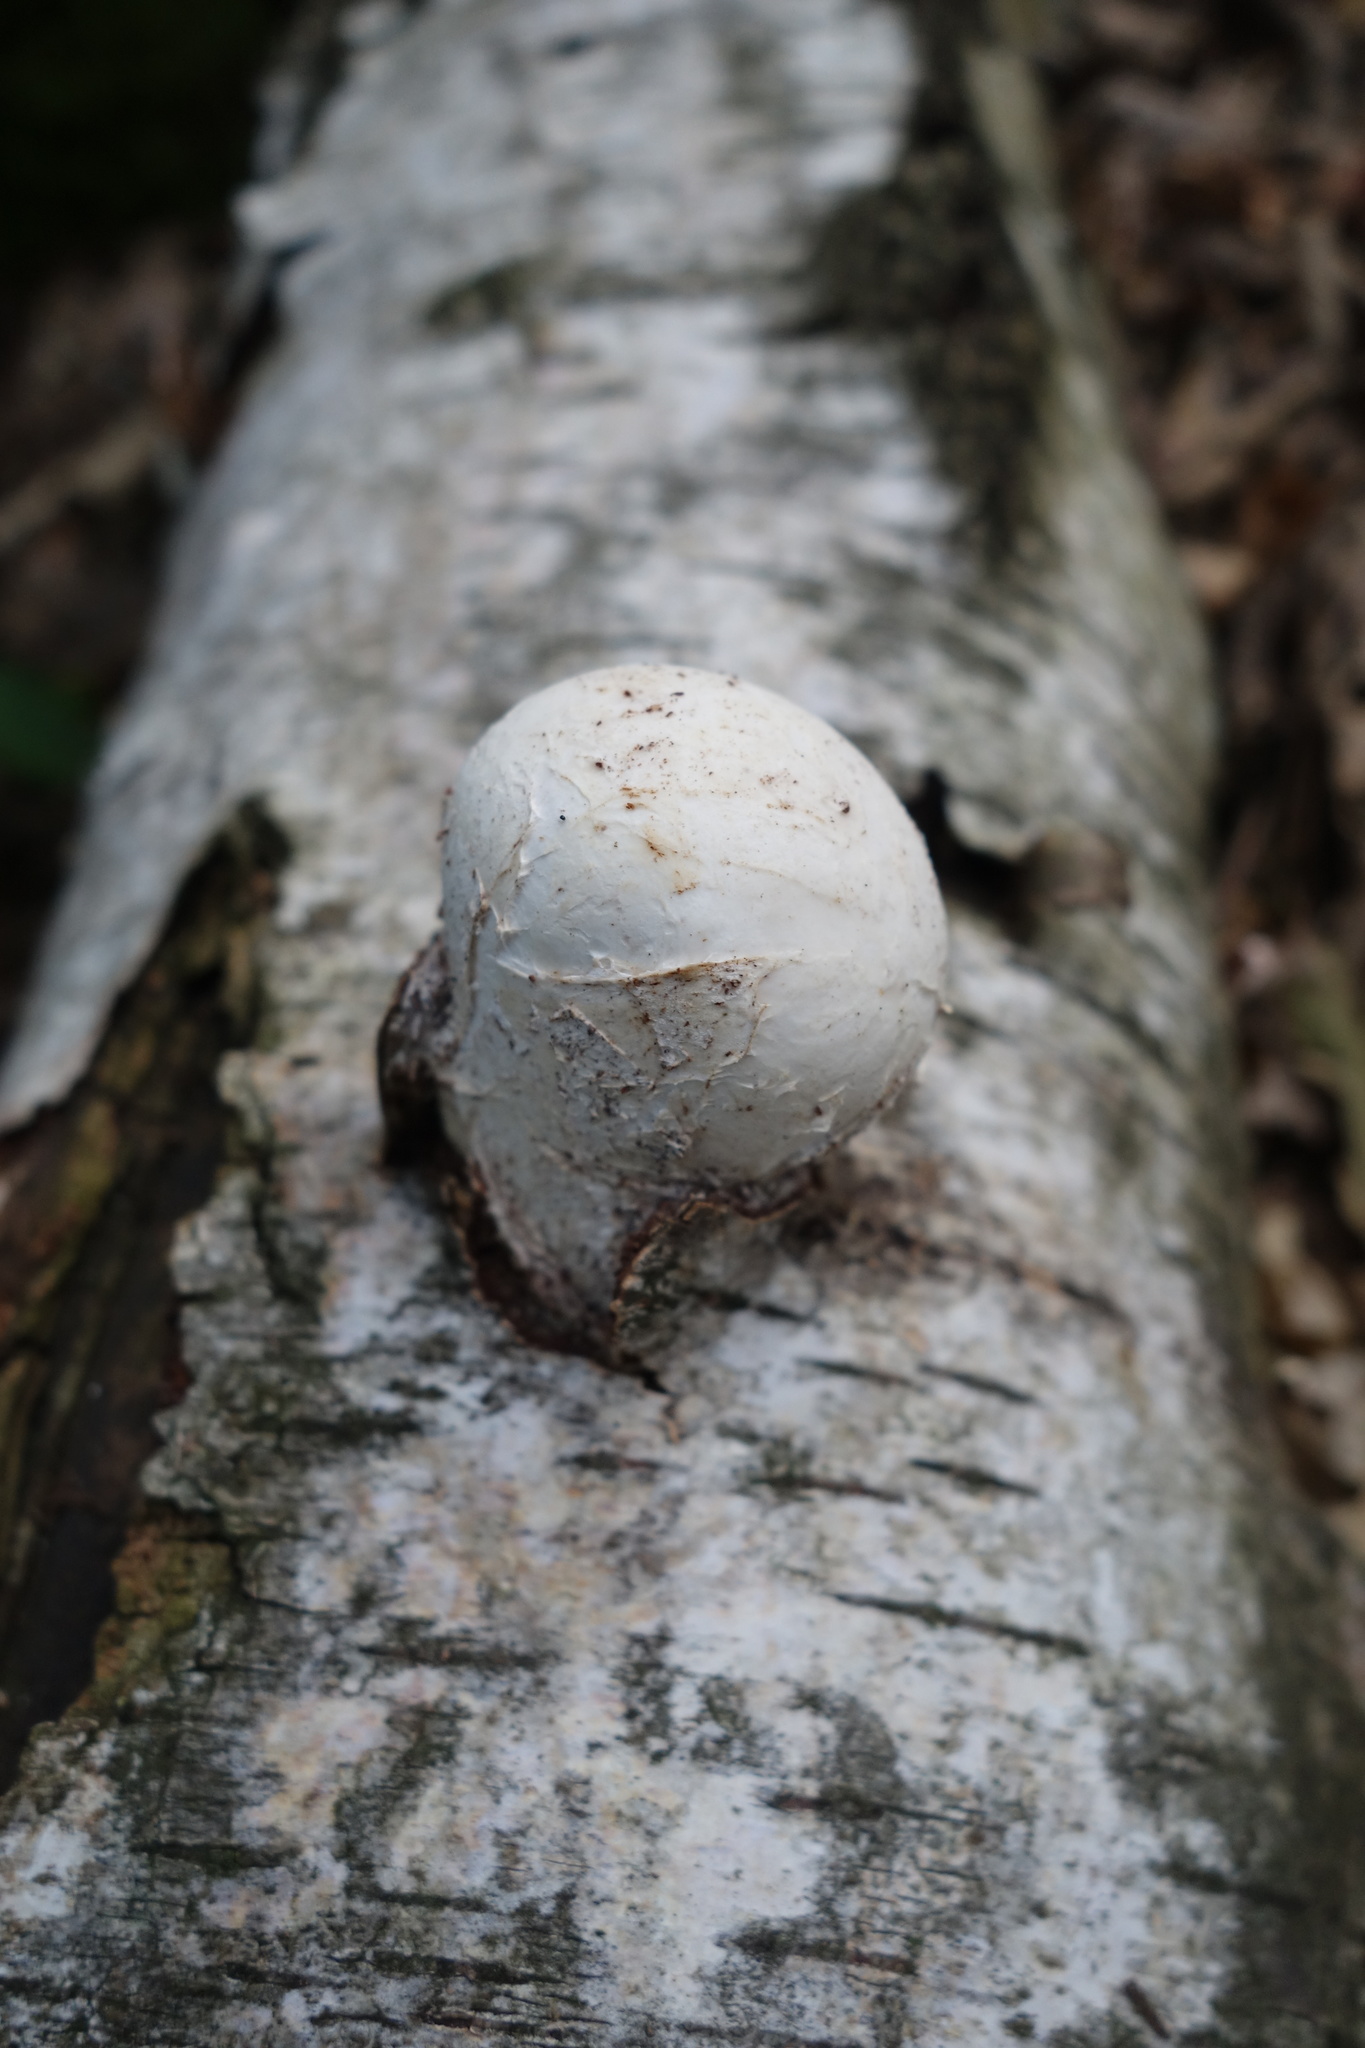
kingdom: Fungi
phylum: Basidiomycota
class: Agaricomycetes
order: Polyporales
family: Fomitopsidaceae
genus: Fomitopsis
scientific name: Fomitopsis betulina
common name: Birch polypore
